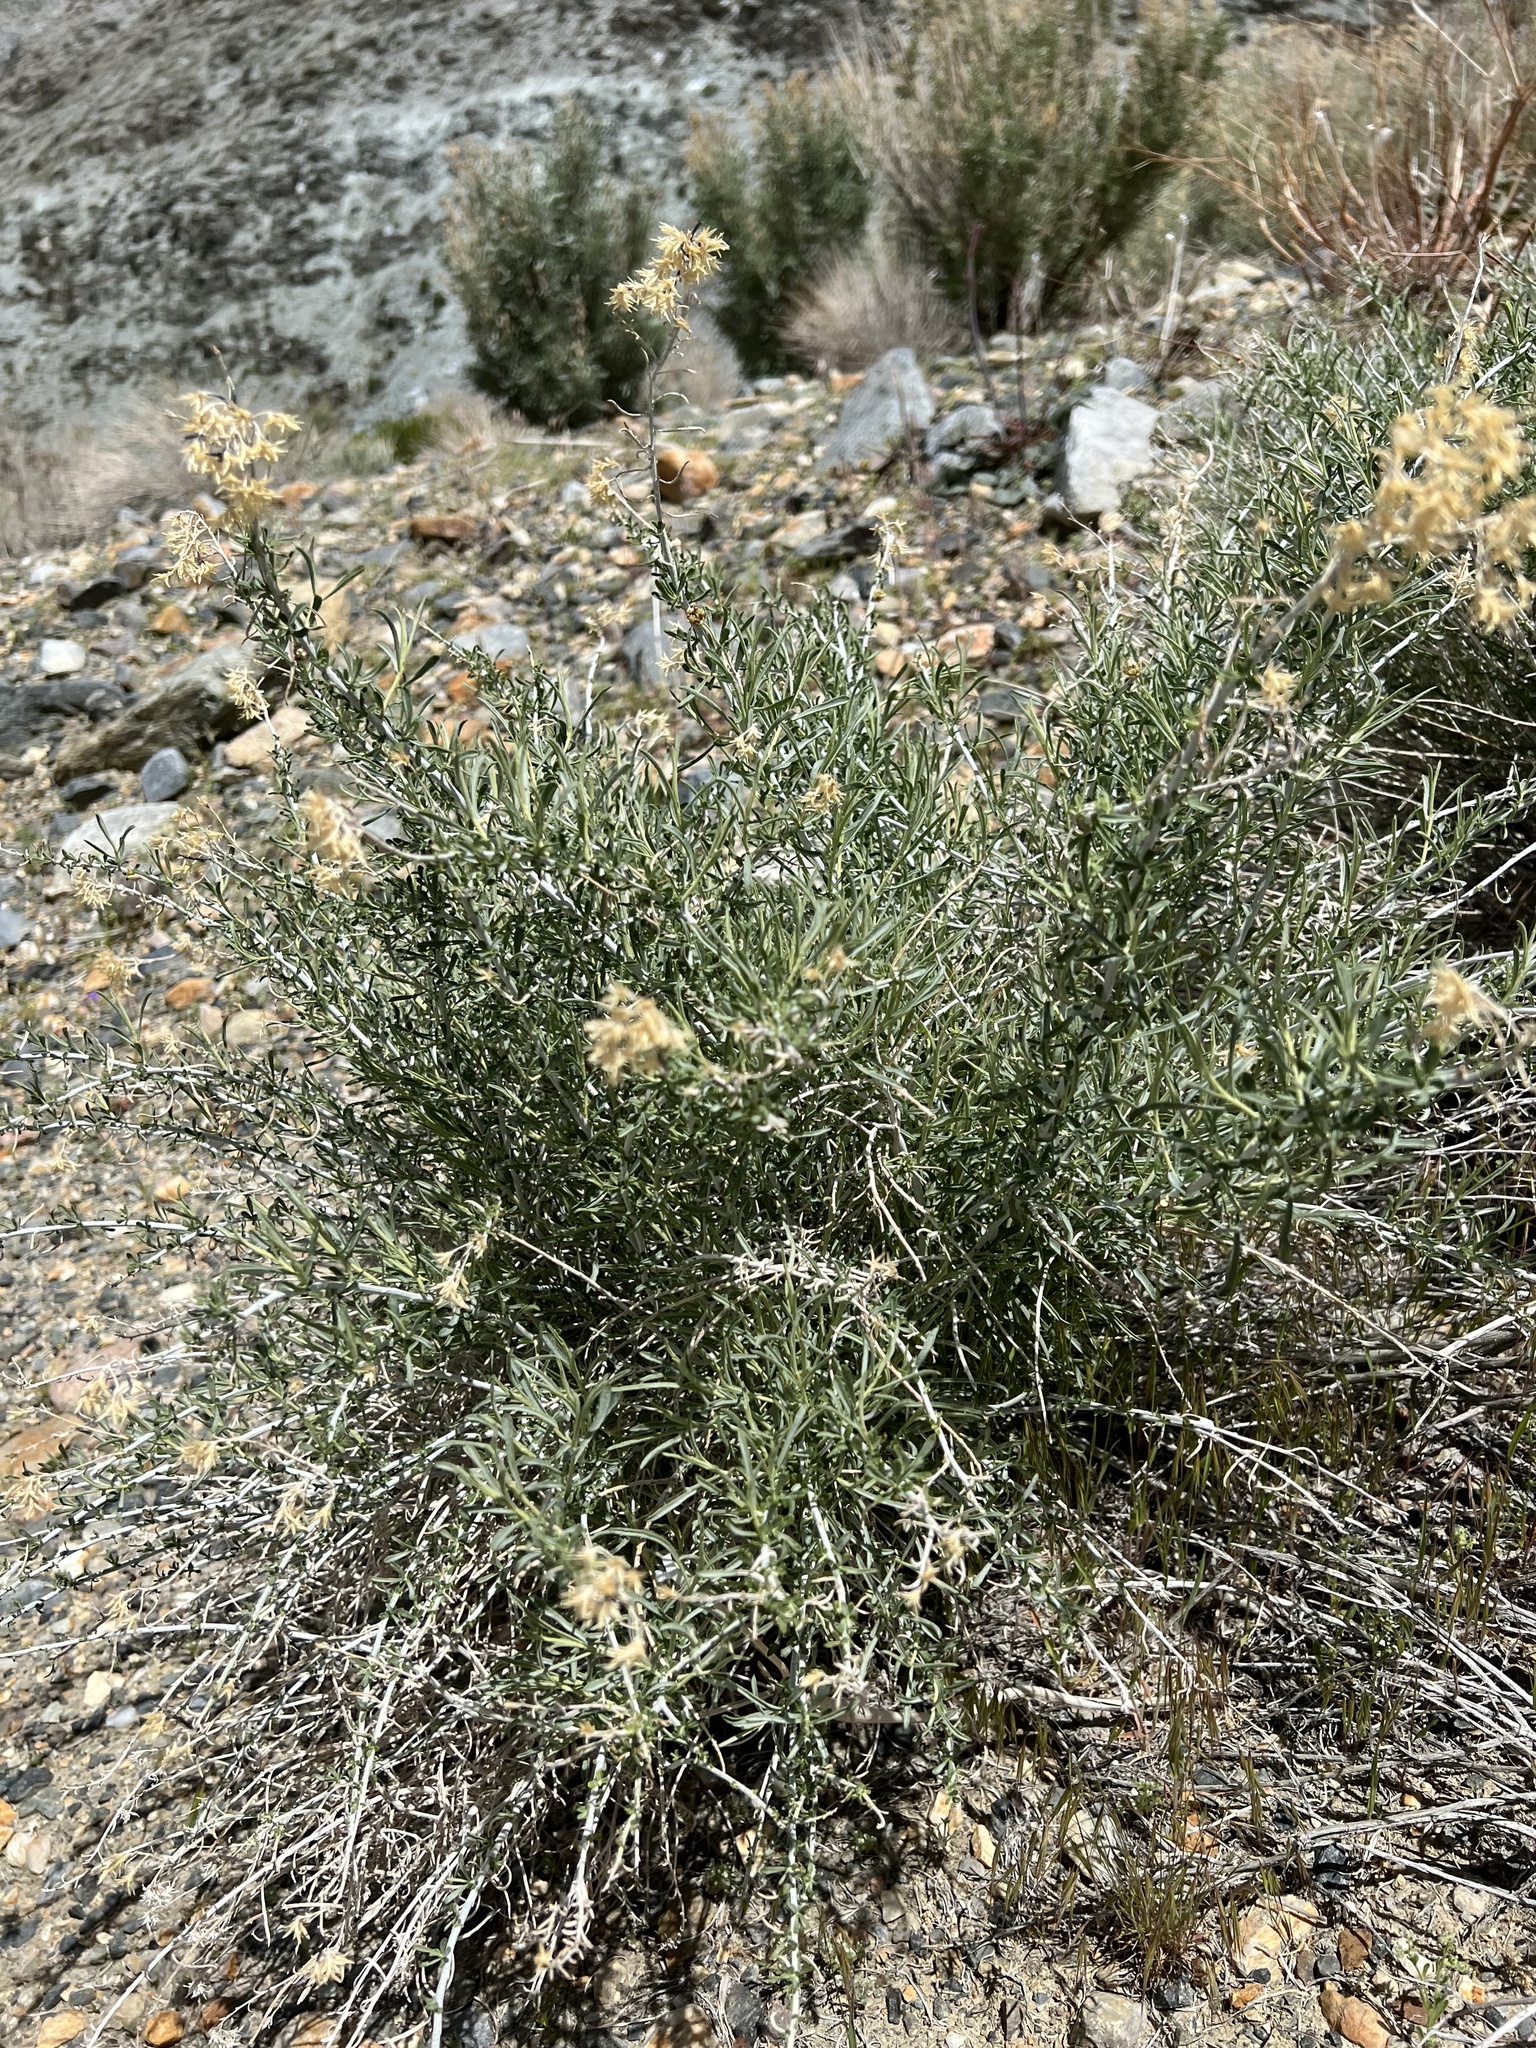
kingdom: Plantae
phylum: Tracheophyta
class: Magnoliopsida
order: Asterales
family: Asteraceae
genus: Ericameria
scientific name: Ericameria nauseosa
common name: Rubber rabbitbrush
